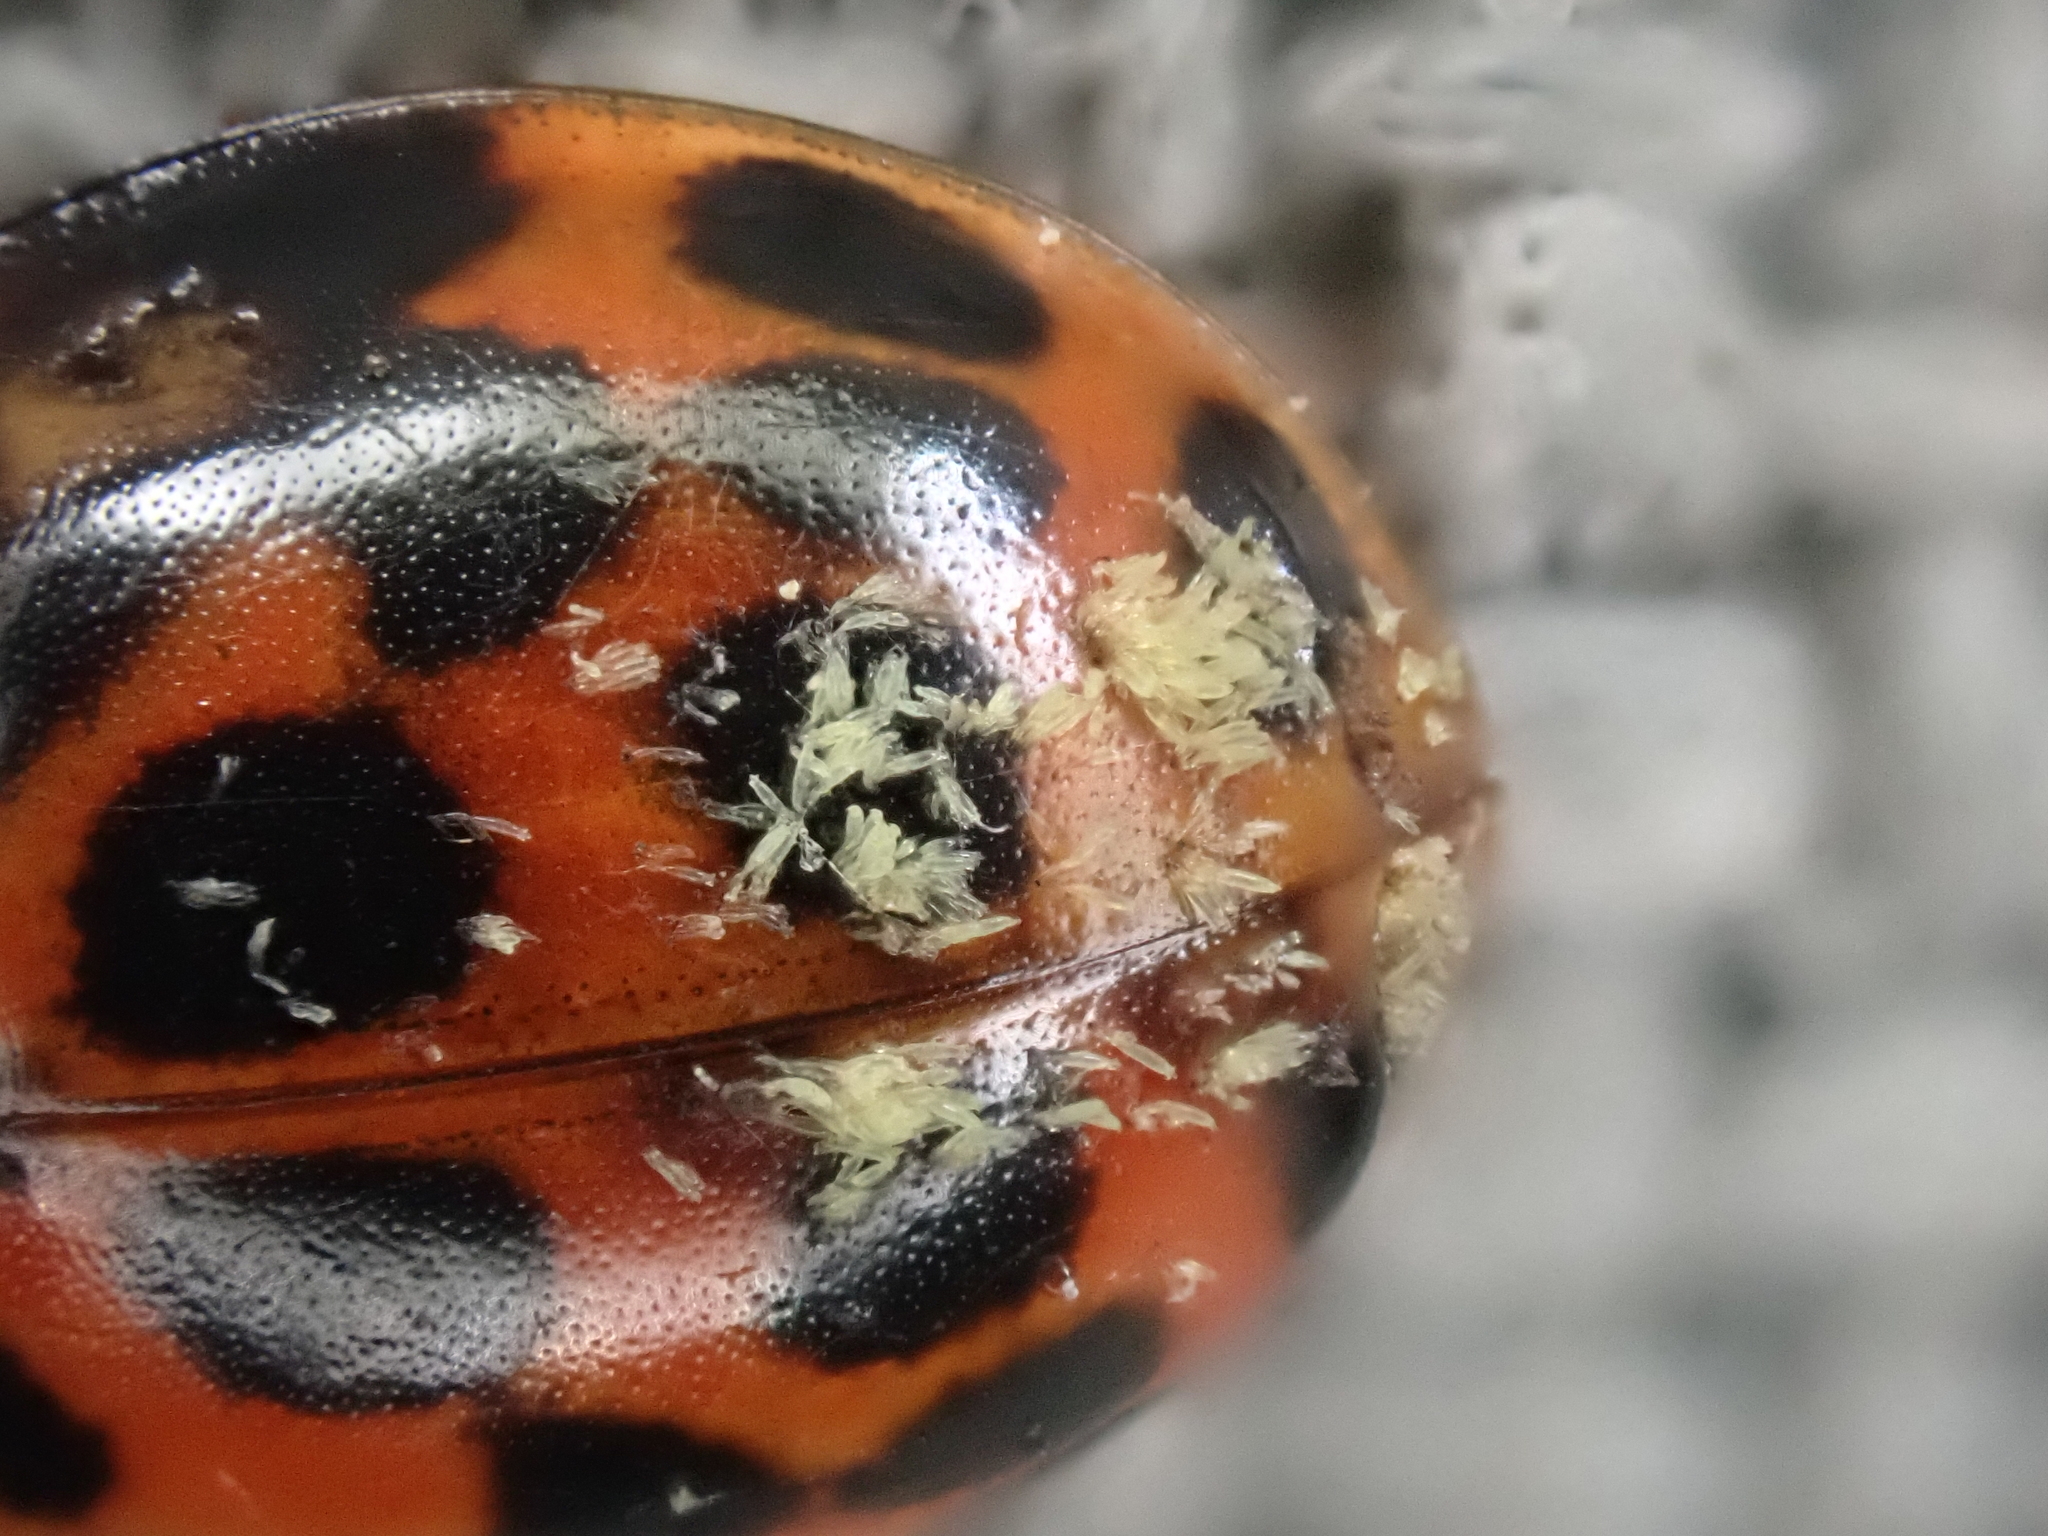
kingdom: Fungi
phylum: Ascomycota
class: Laboulbeniomycetes
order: Laboulbeniales
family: Laboulbeniaceae
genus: Hesperomyces
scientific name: Hesperomyces harmoniae
